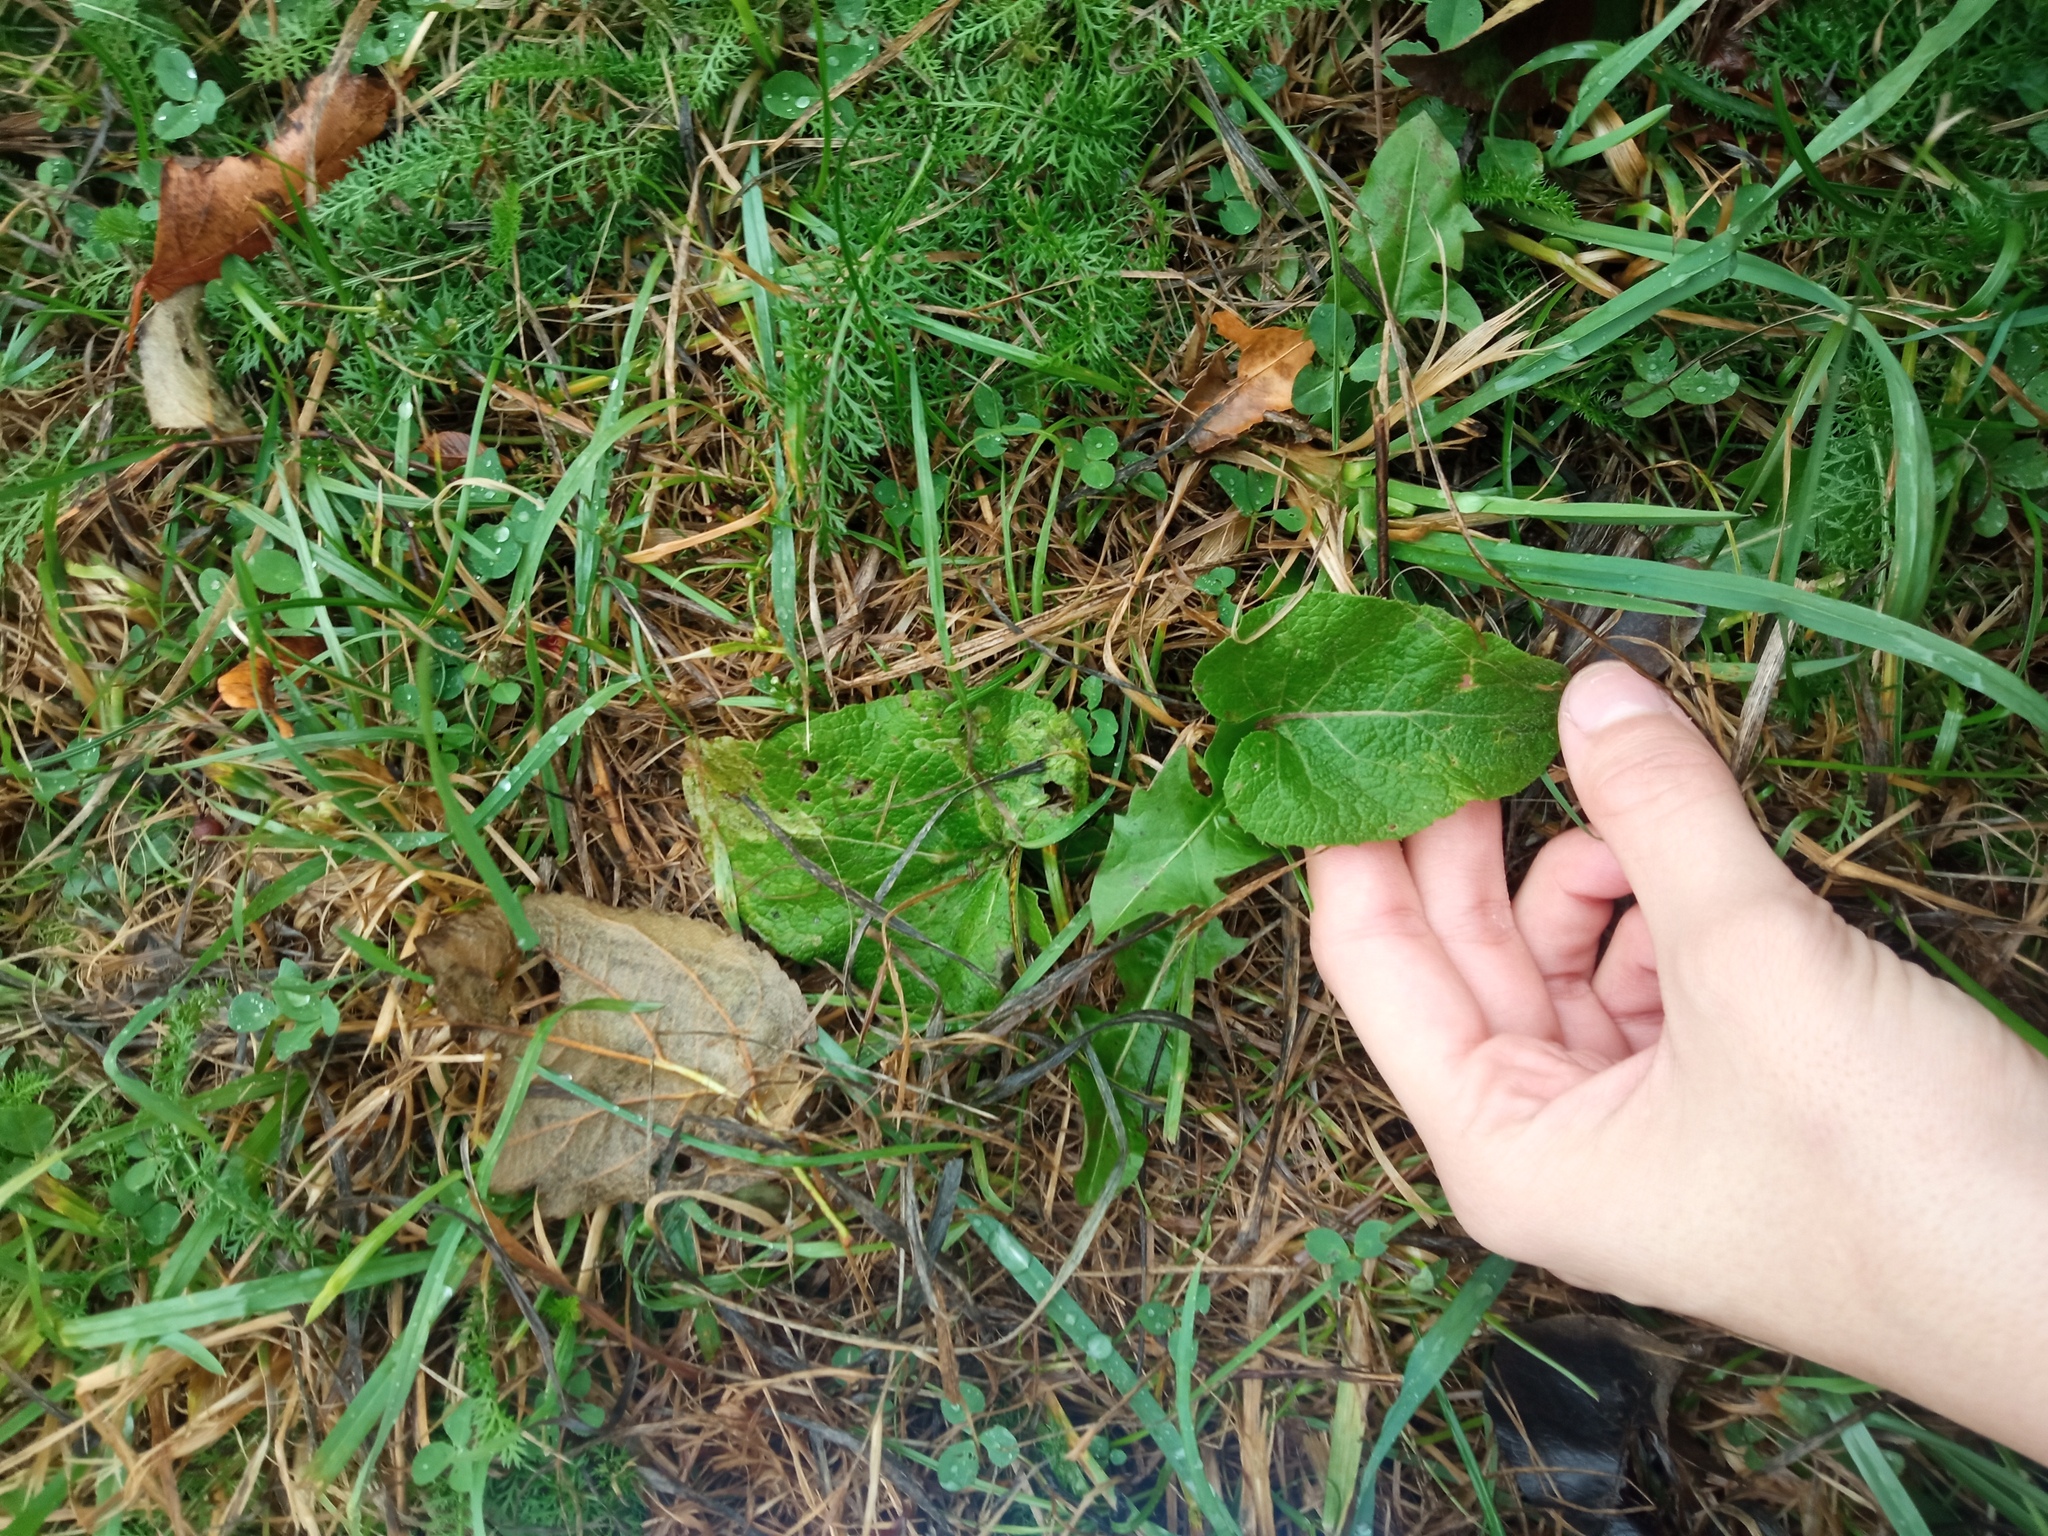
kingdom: Plantae
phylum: Tracheophyta
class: Magnoliopsida
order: Asterales
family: Asteraceae
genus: Arctium
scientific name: Arctium
